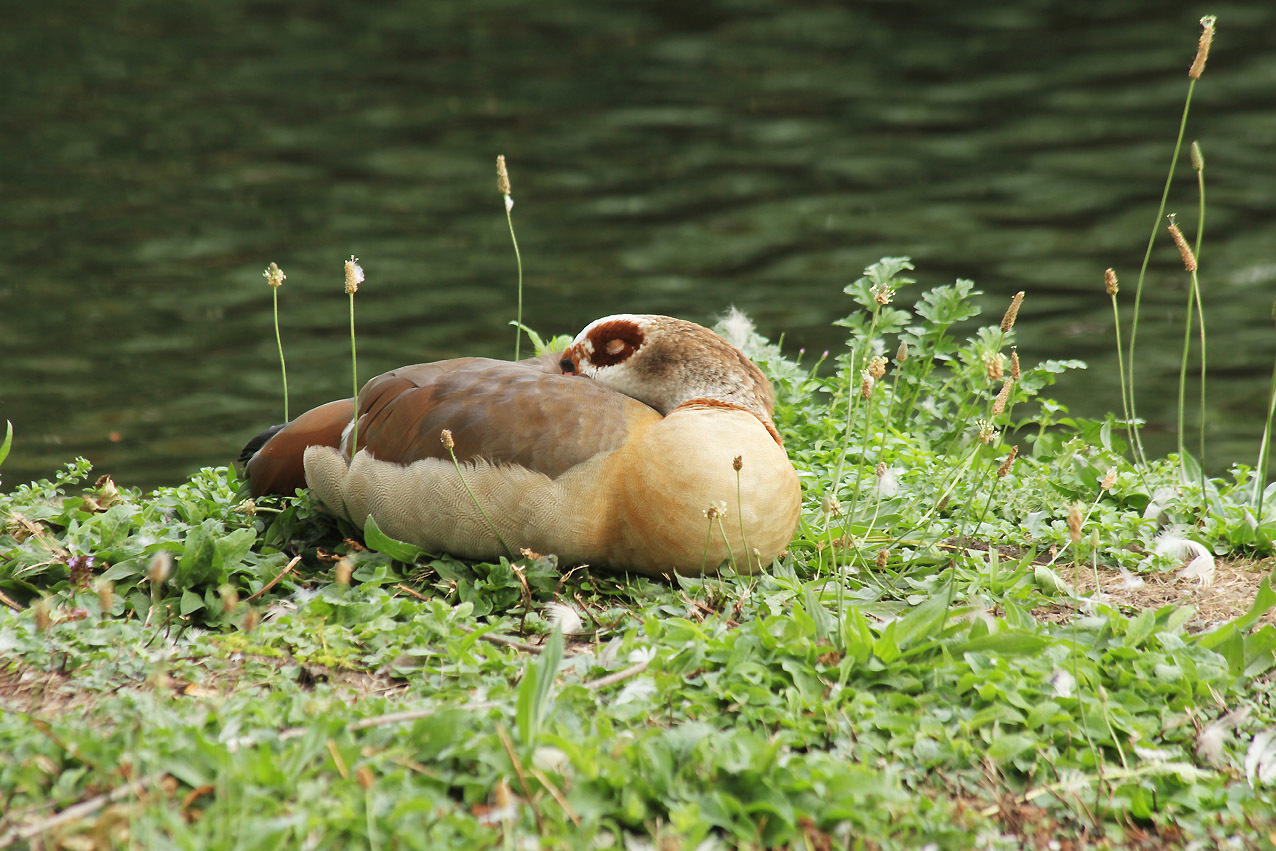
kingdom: Animalia
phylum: Chordata
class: Aves
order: Anseriformes
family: Anatidae
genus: Alopochen
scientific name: Alopochen aegyptiaca
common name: Egyptian goose
